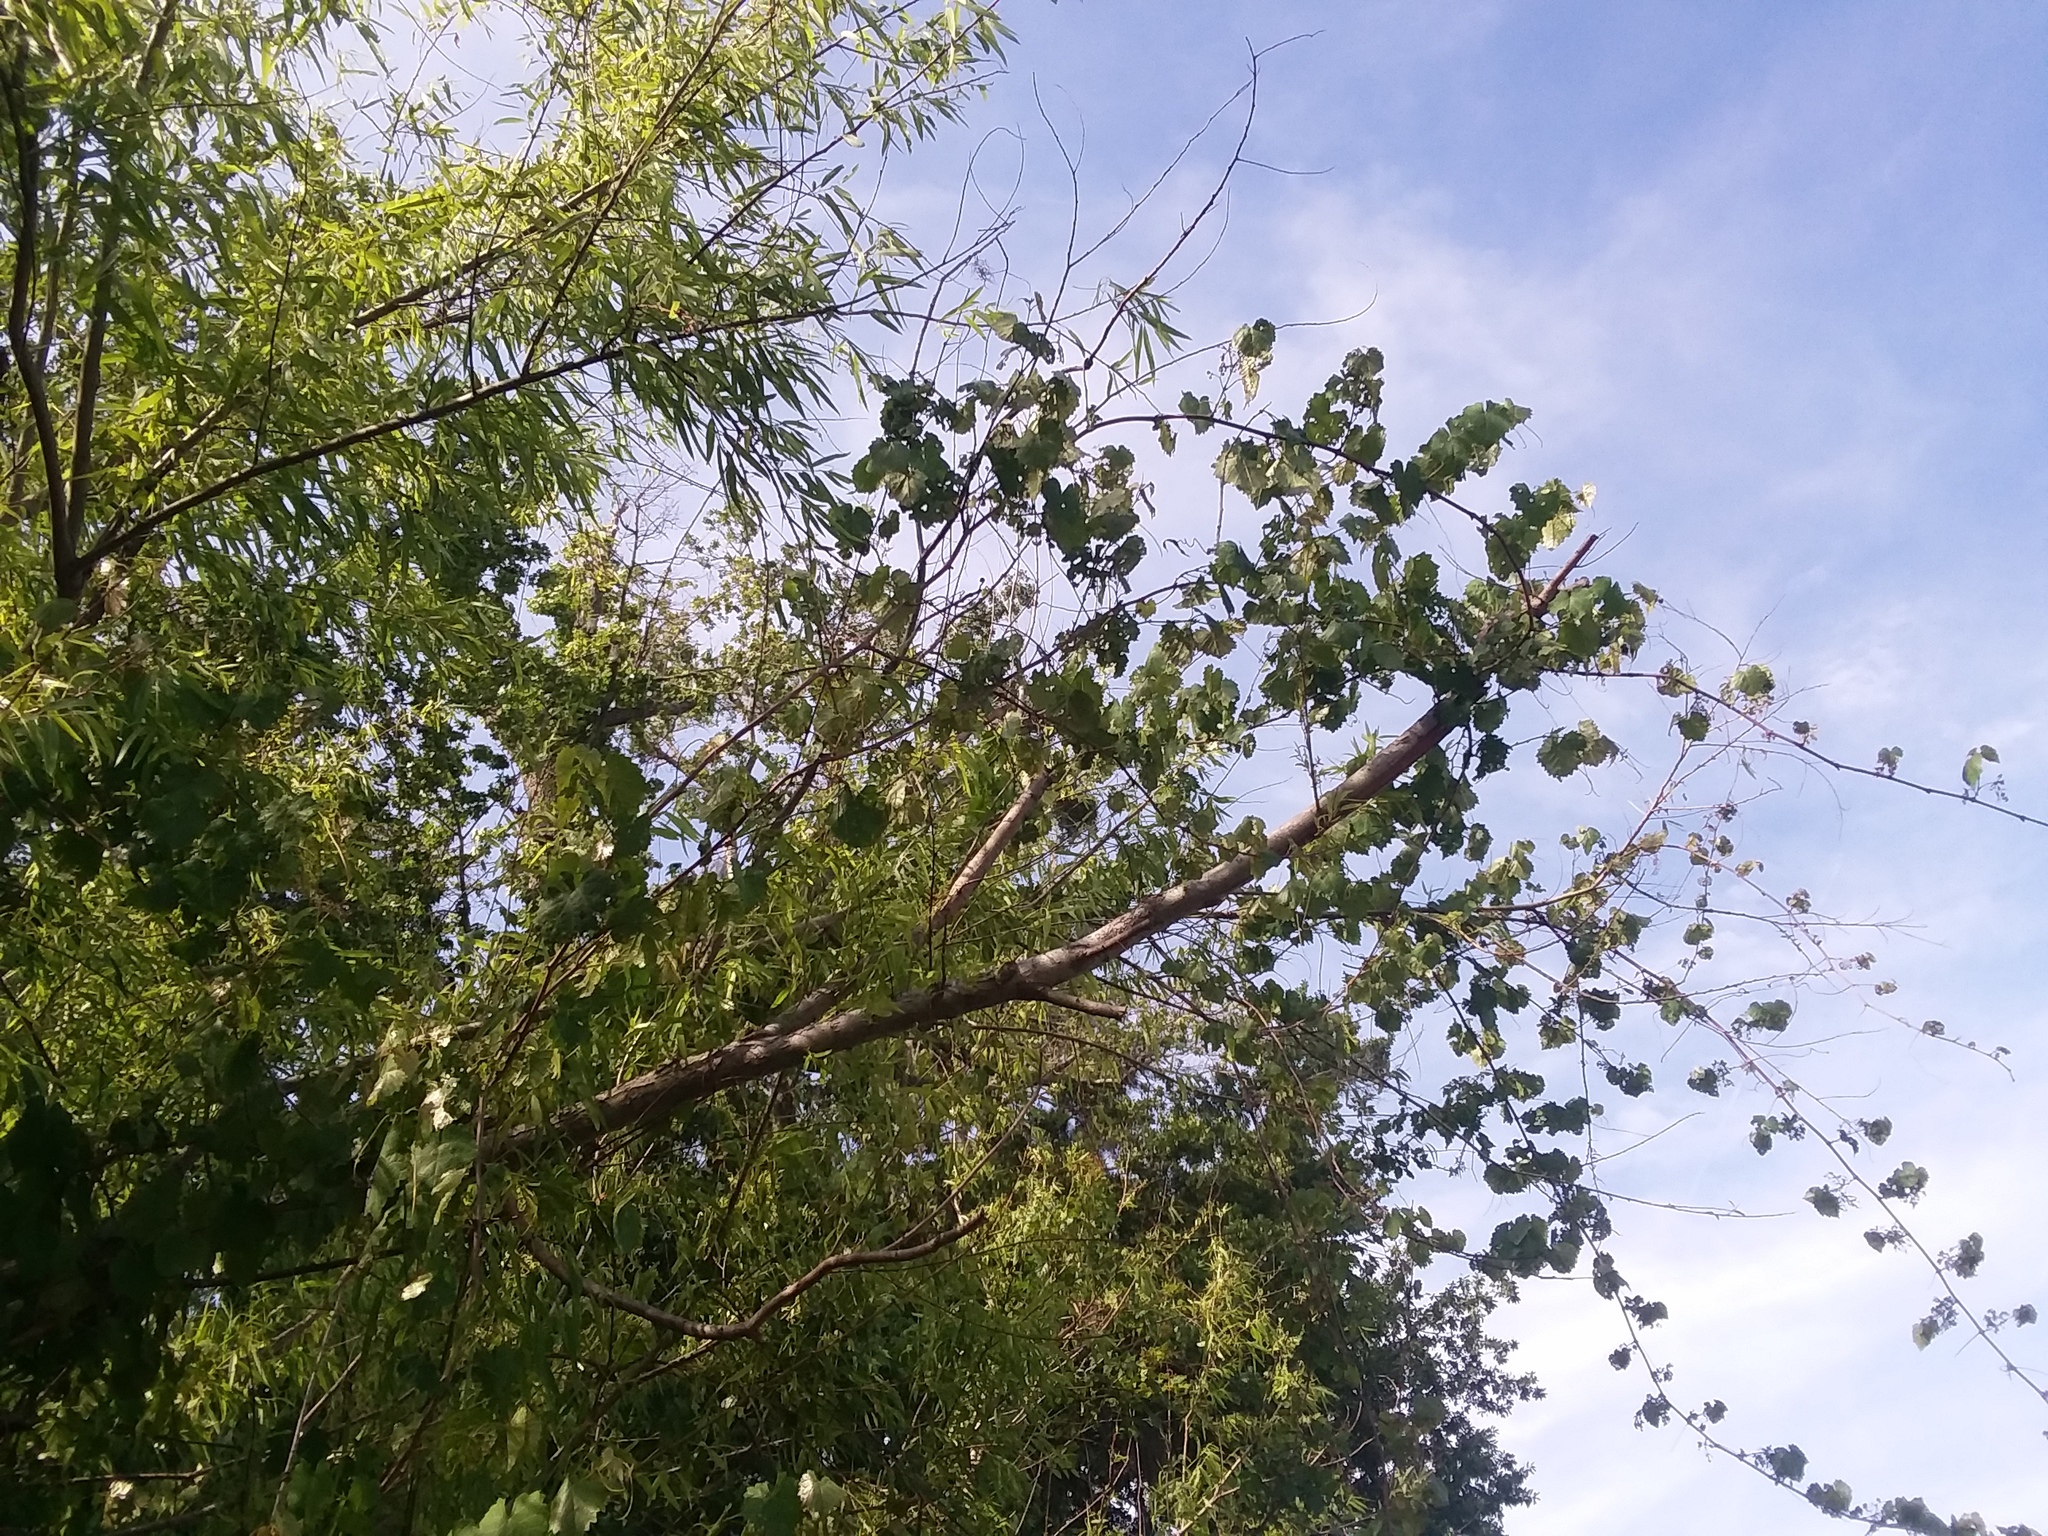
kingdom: Plantae
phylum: Tracheophyta
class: Magnoliopsida
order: Vitales
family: Vitaceae
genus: Vitis
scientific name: Vitis rotundifolia
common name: Muscadine grape
